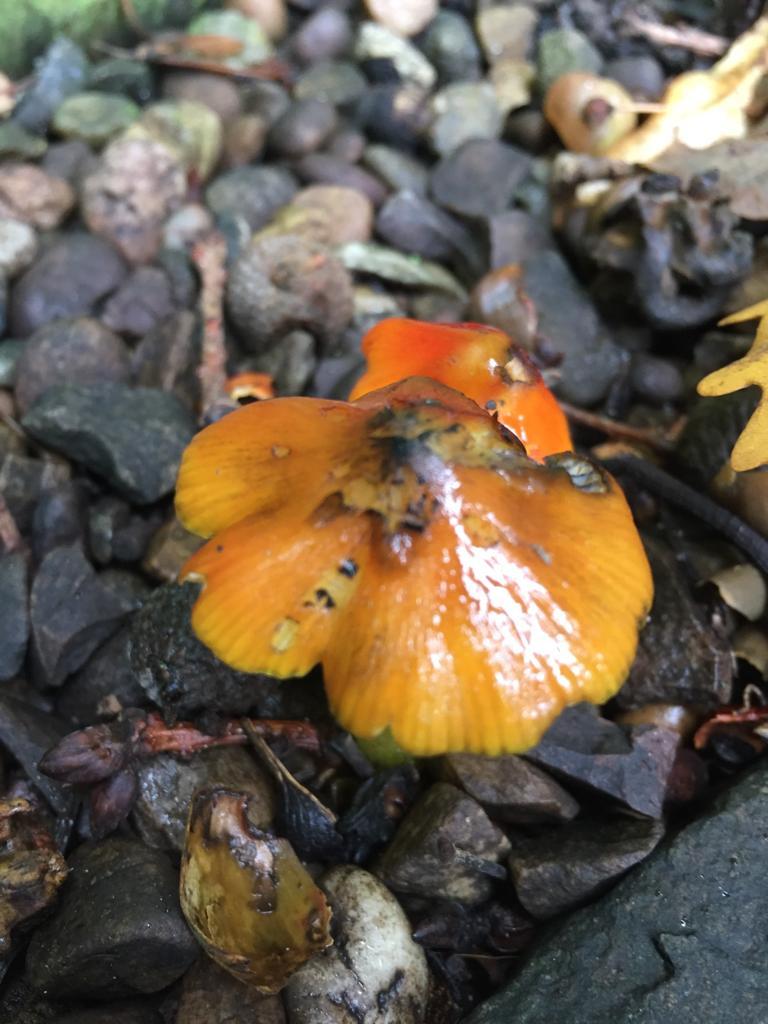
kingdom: Fungi
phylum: Basidiomycota
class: Agaricomycetes
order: Agaricales
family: Hygrophoraceae
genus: Hygrocybe
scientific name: Hygrocybe conica
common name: Blackening wax-cap
